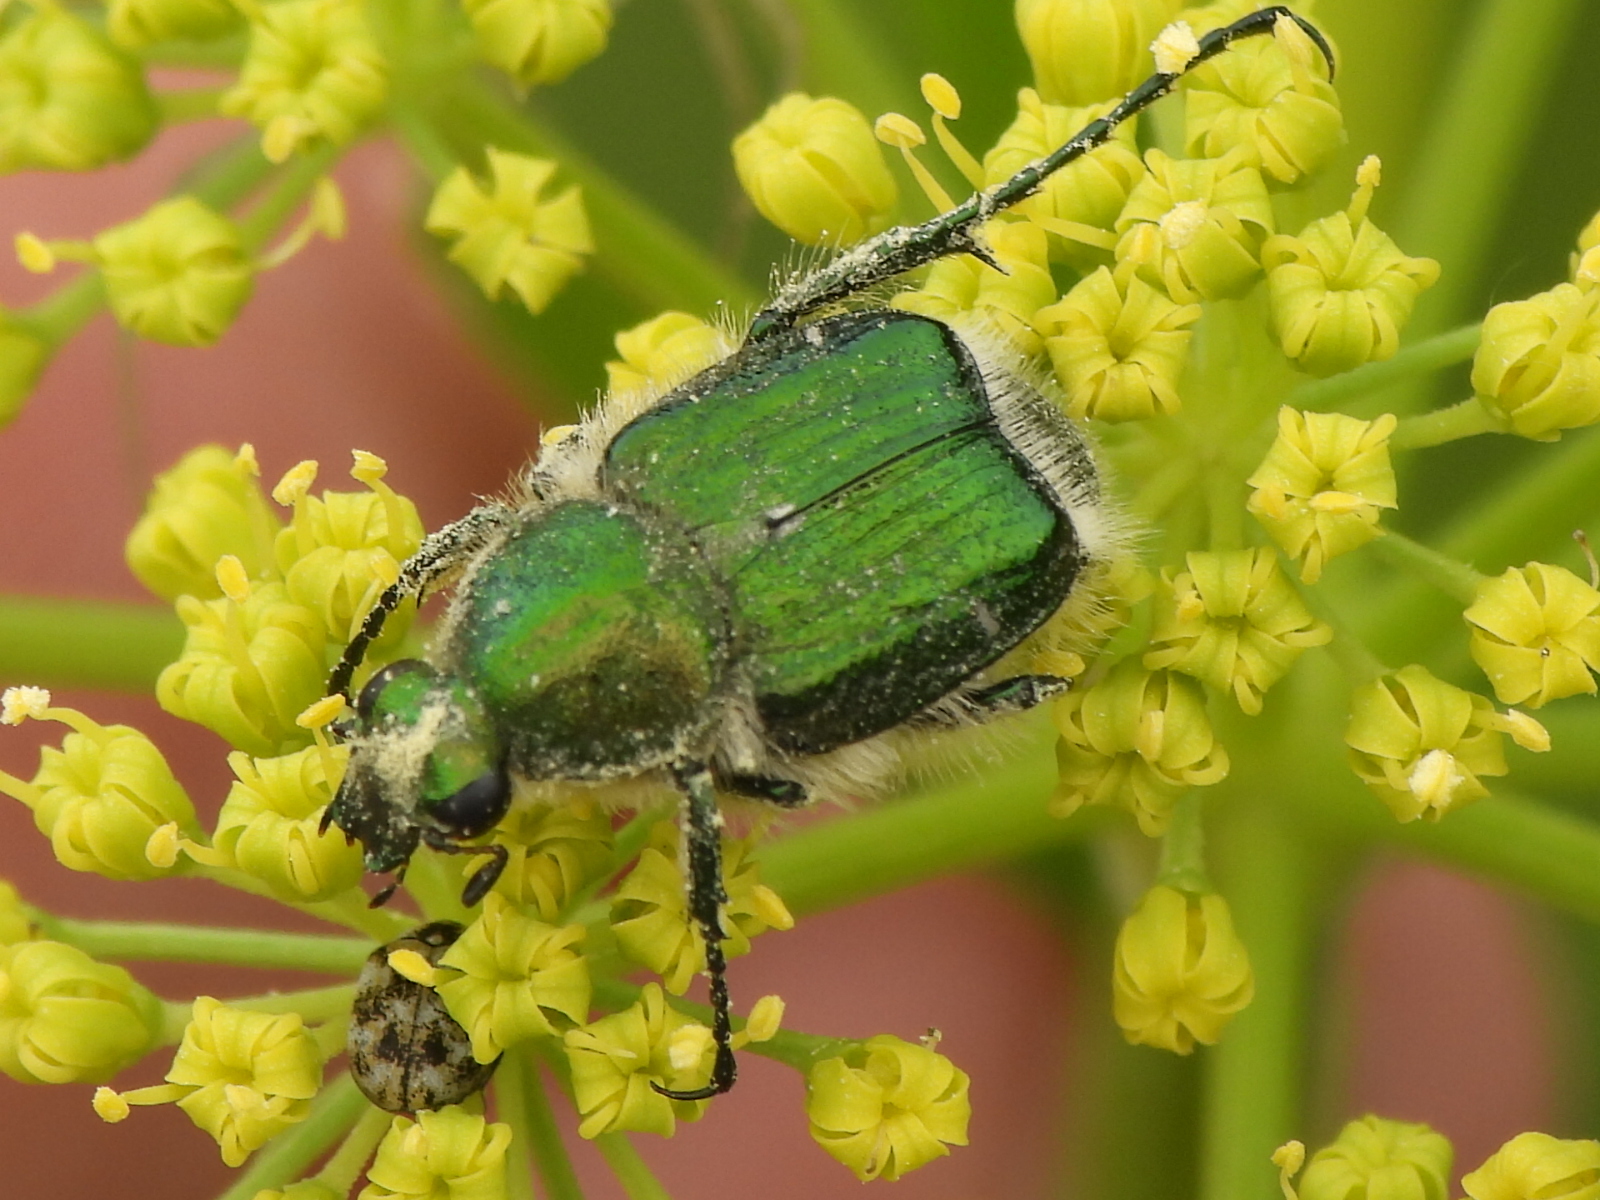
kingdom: Animalia
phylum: Arthropoda
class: Insecta
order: Coleoptera
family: Scarabaeidae
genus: Trichiotinus
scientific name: Trichiotinus lunulatus
